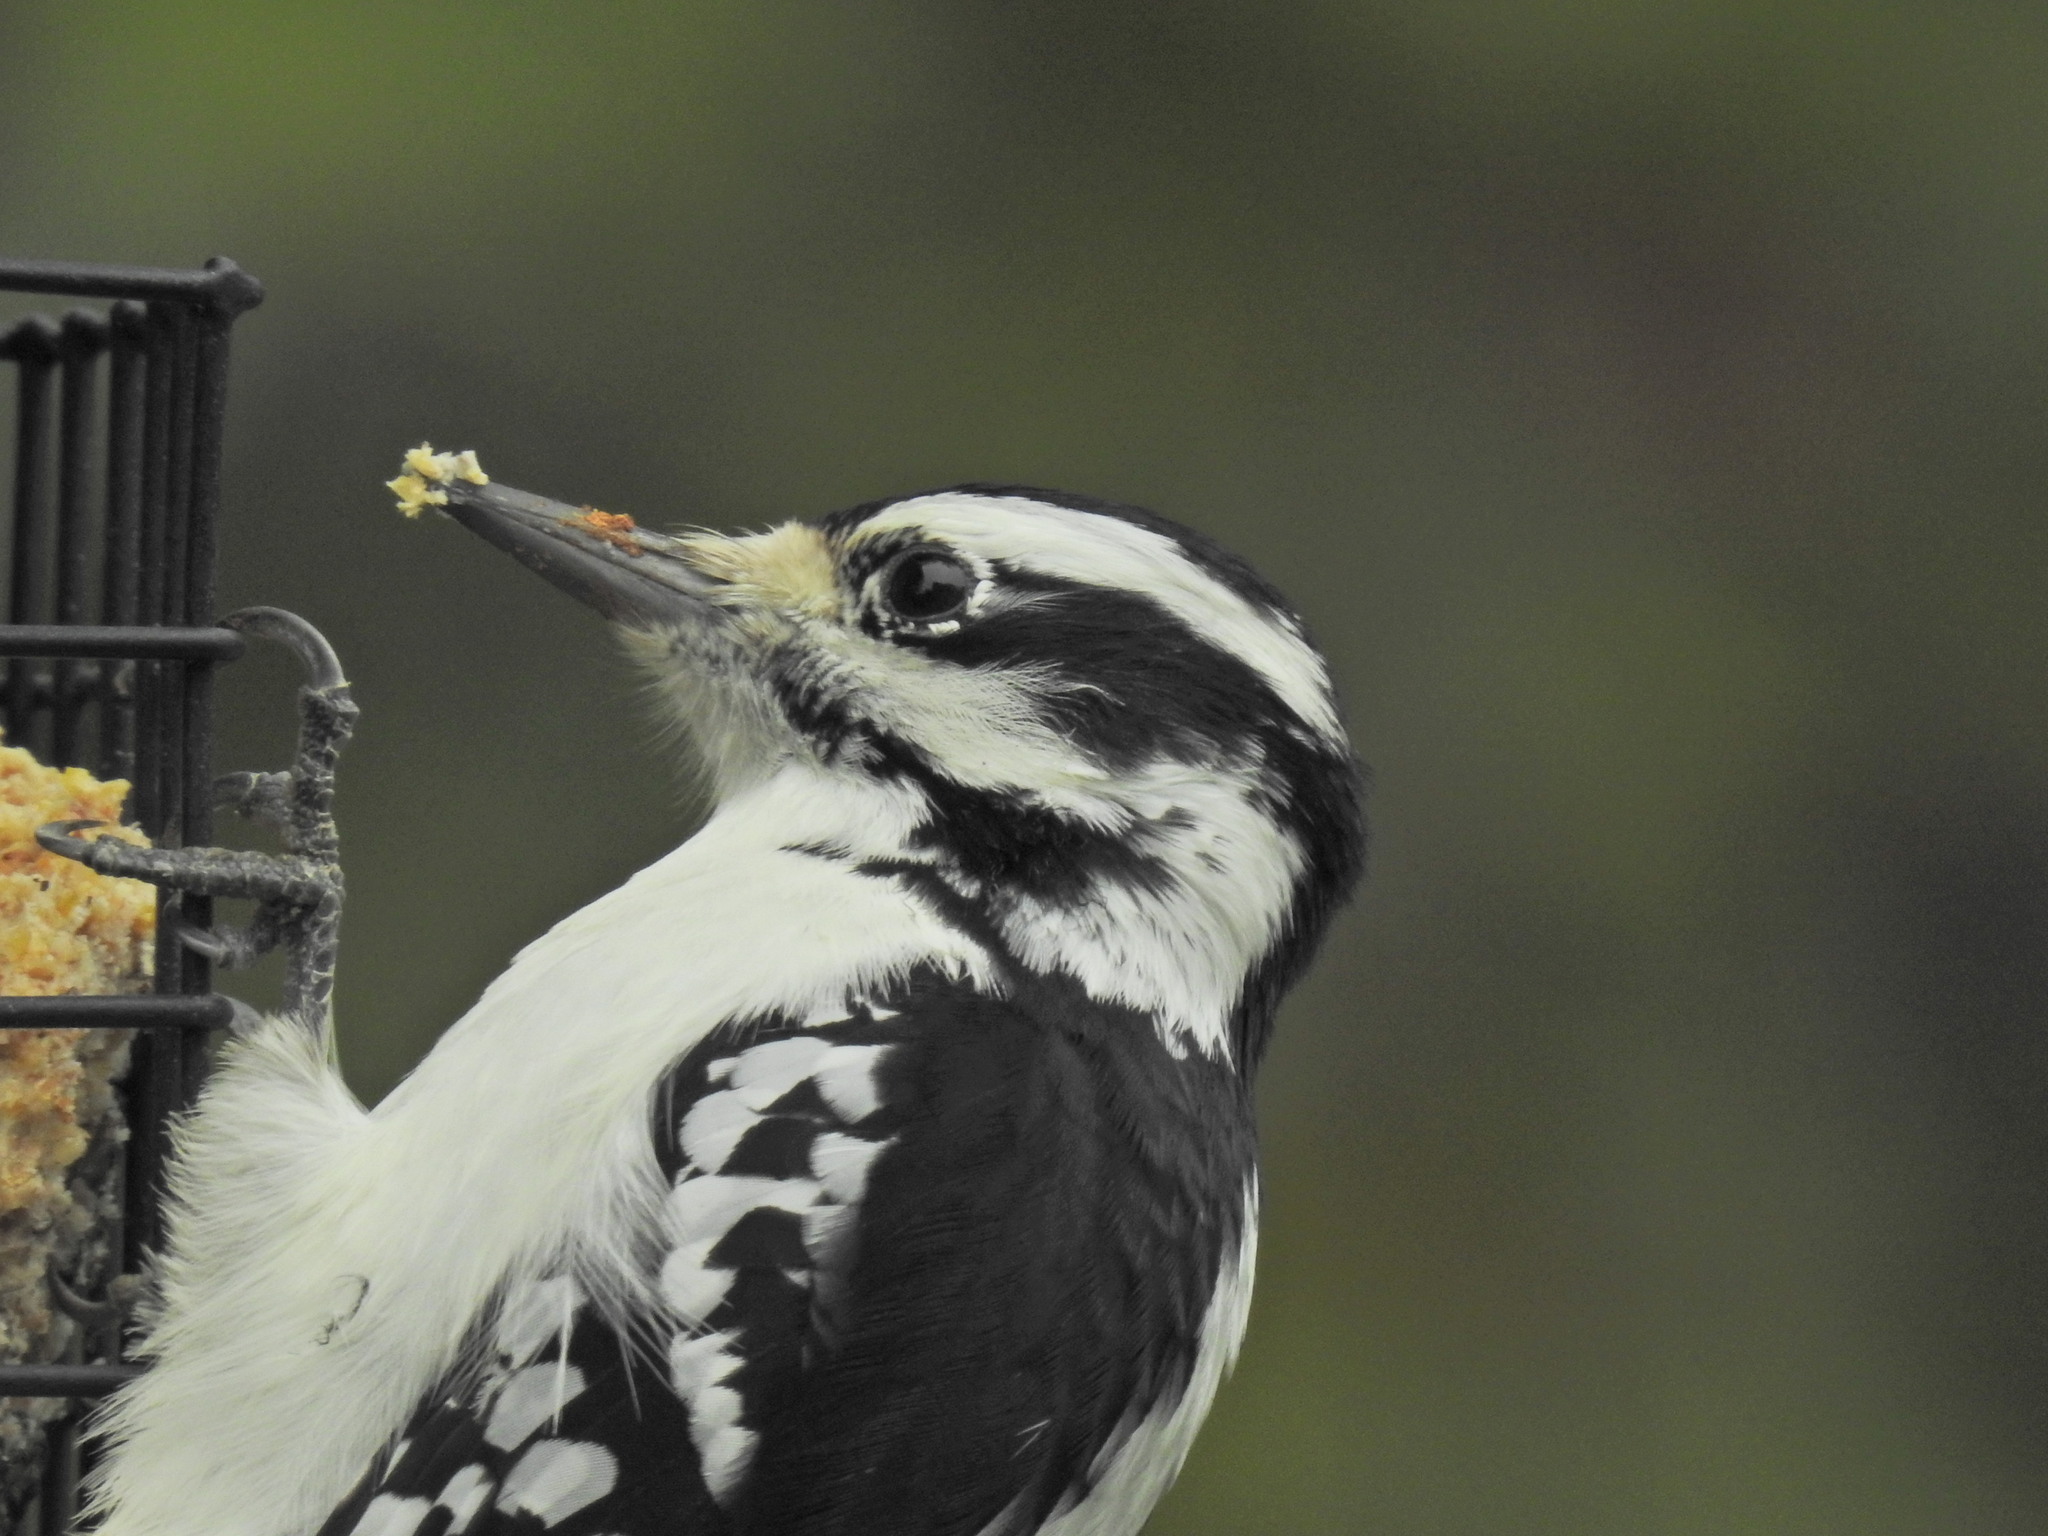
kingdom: Animalia
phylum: Chordata
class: Aves
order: Piciformes
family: Picidae
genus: Leuconotopicus
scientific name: Leuconotopicus villosus
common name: Hairy woodpecker
